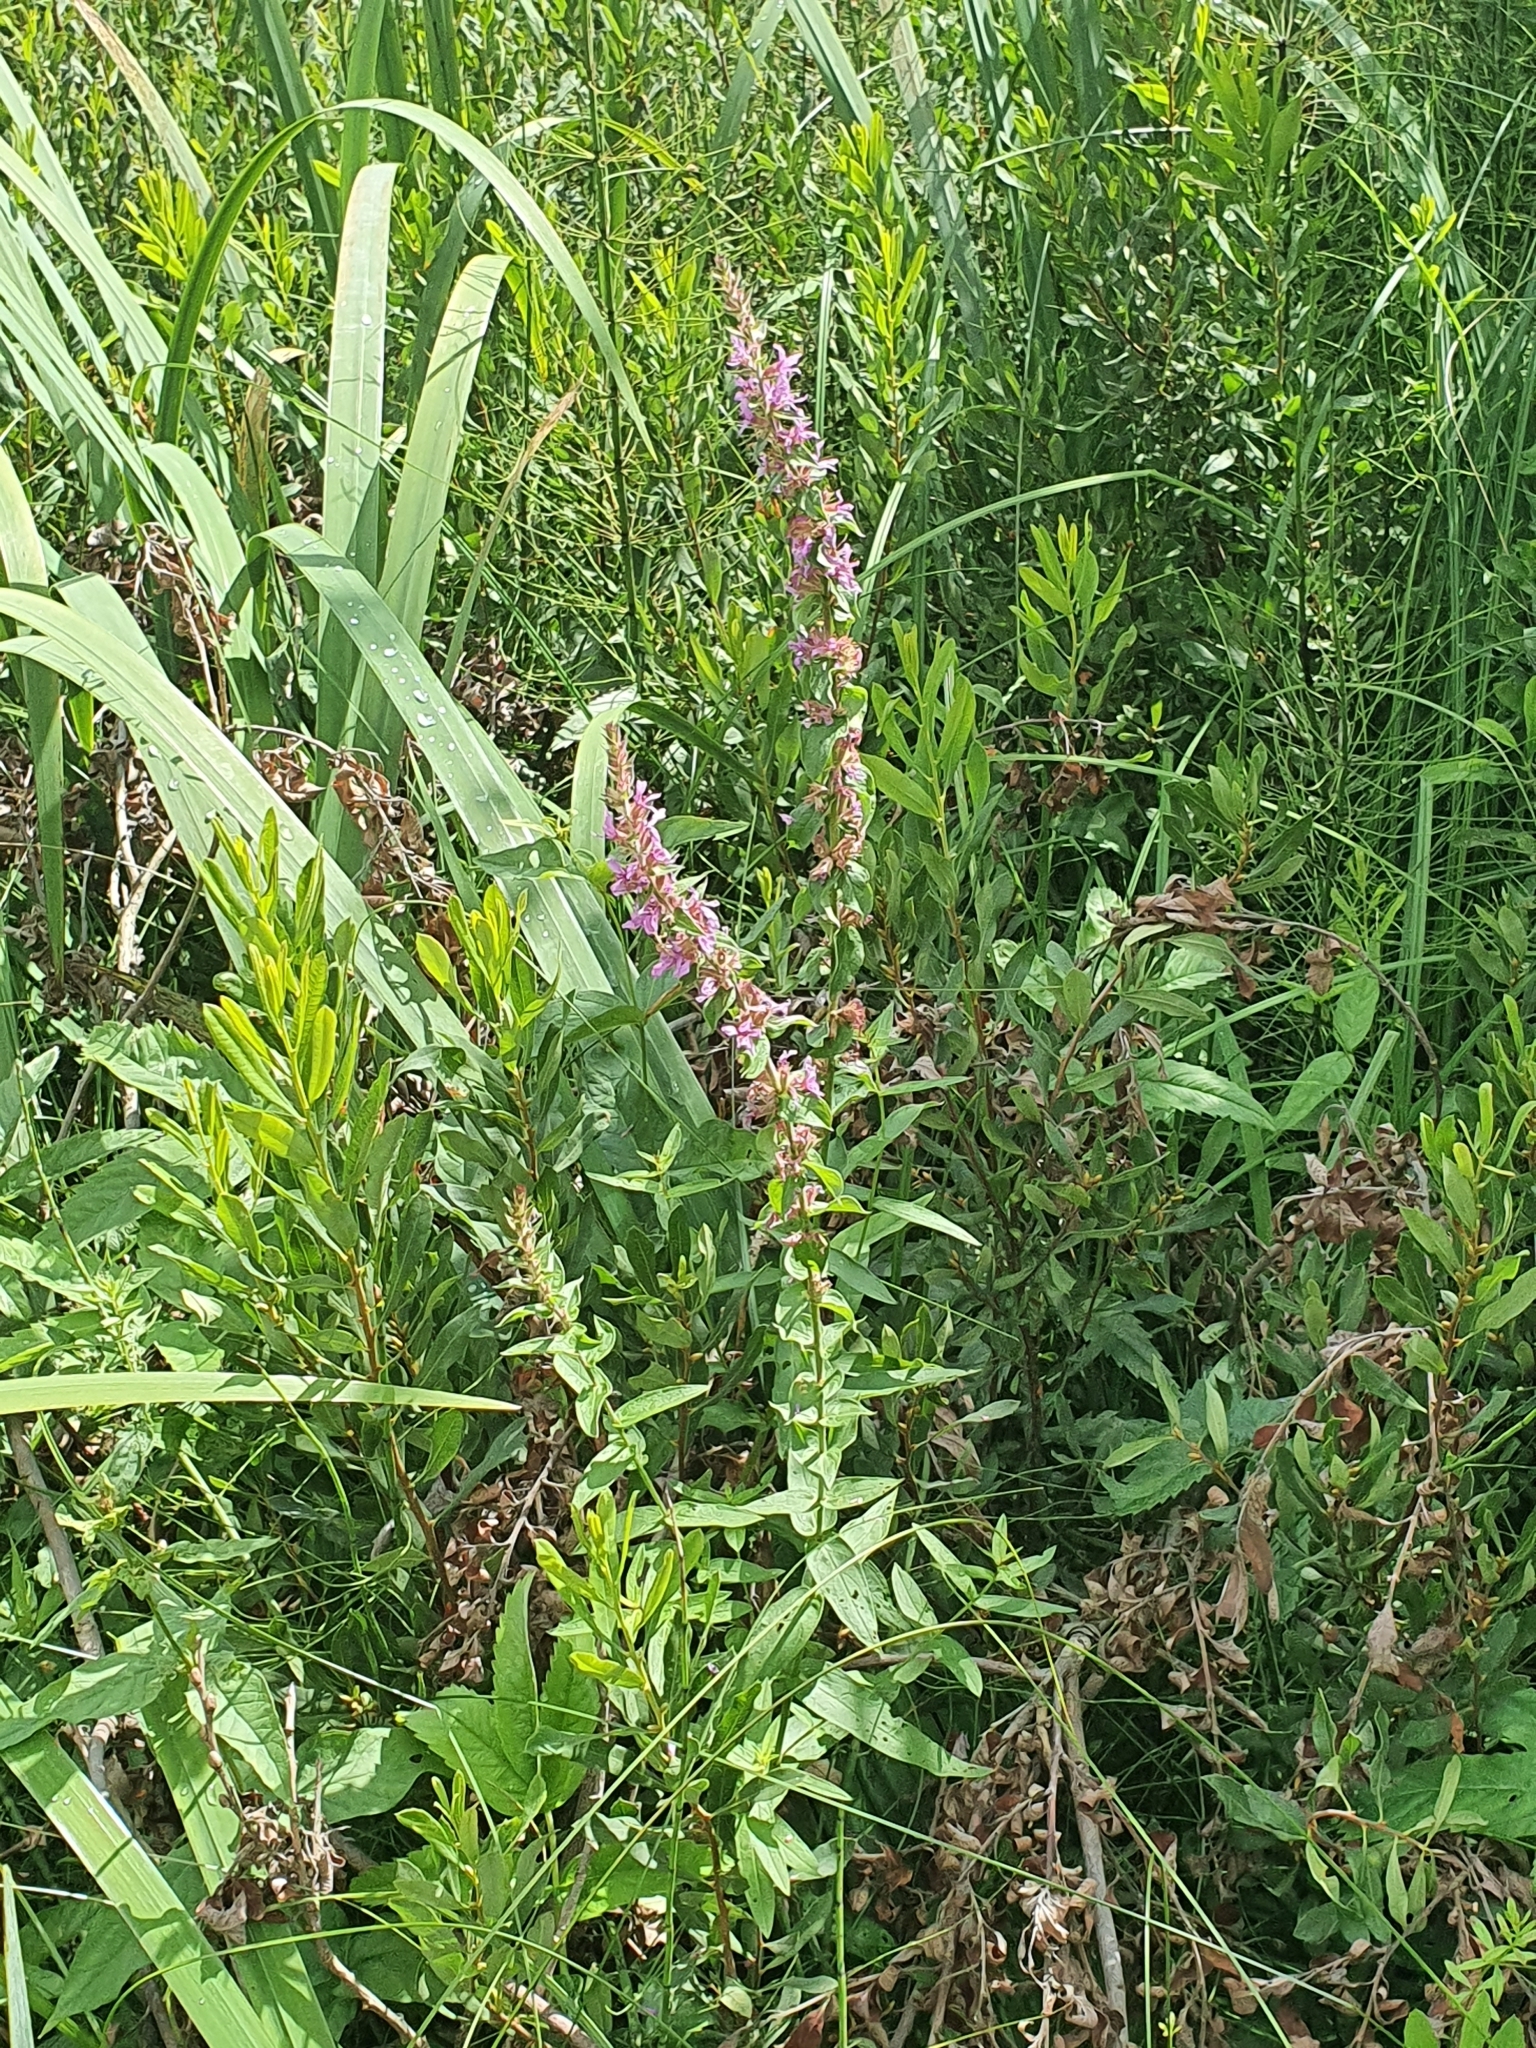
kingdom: Plantae
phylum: Tracheophyta
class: Magnoliopsida
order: Myrtales
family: Lythraceae
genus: Lythrum
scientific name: Lythrum salicaria
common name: Purple loosestrife
